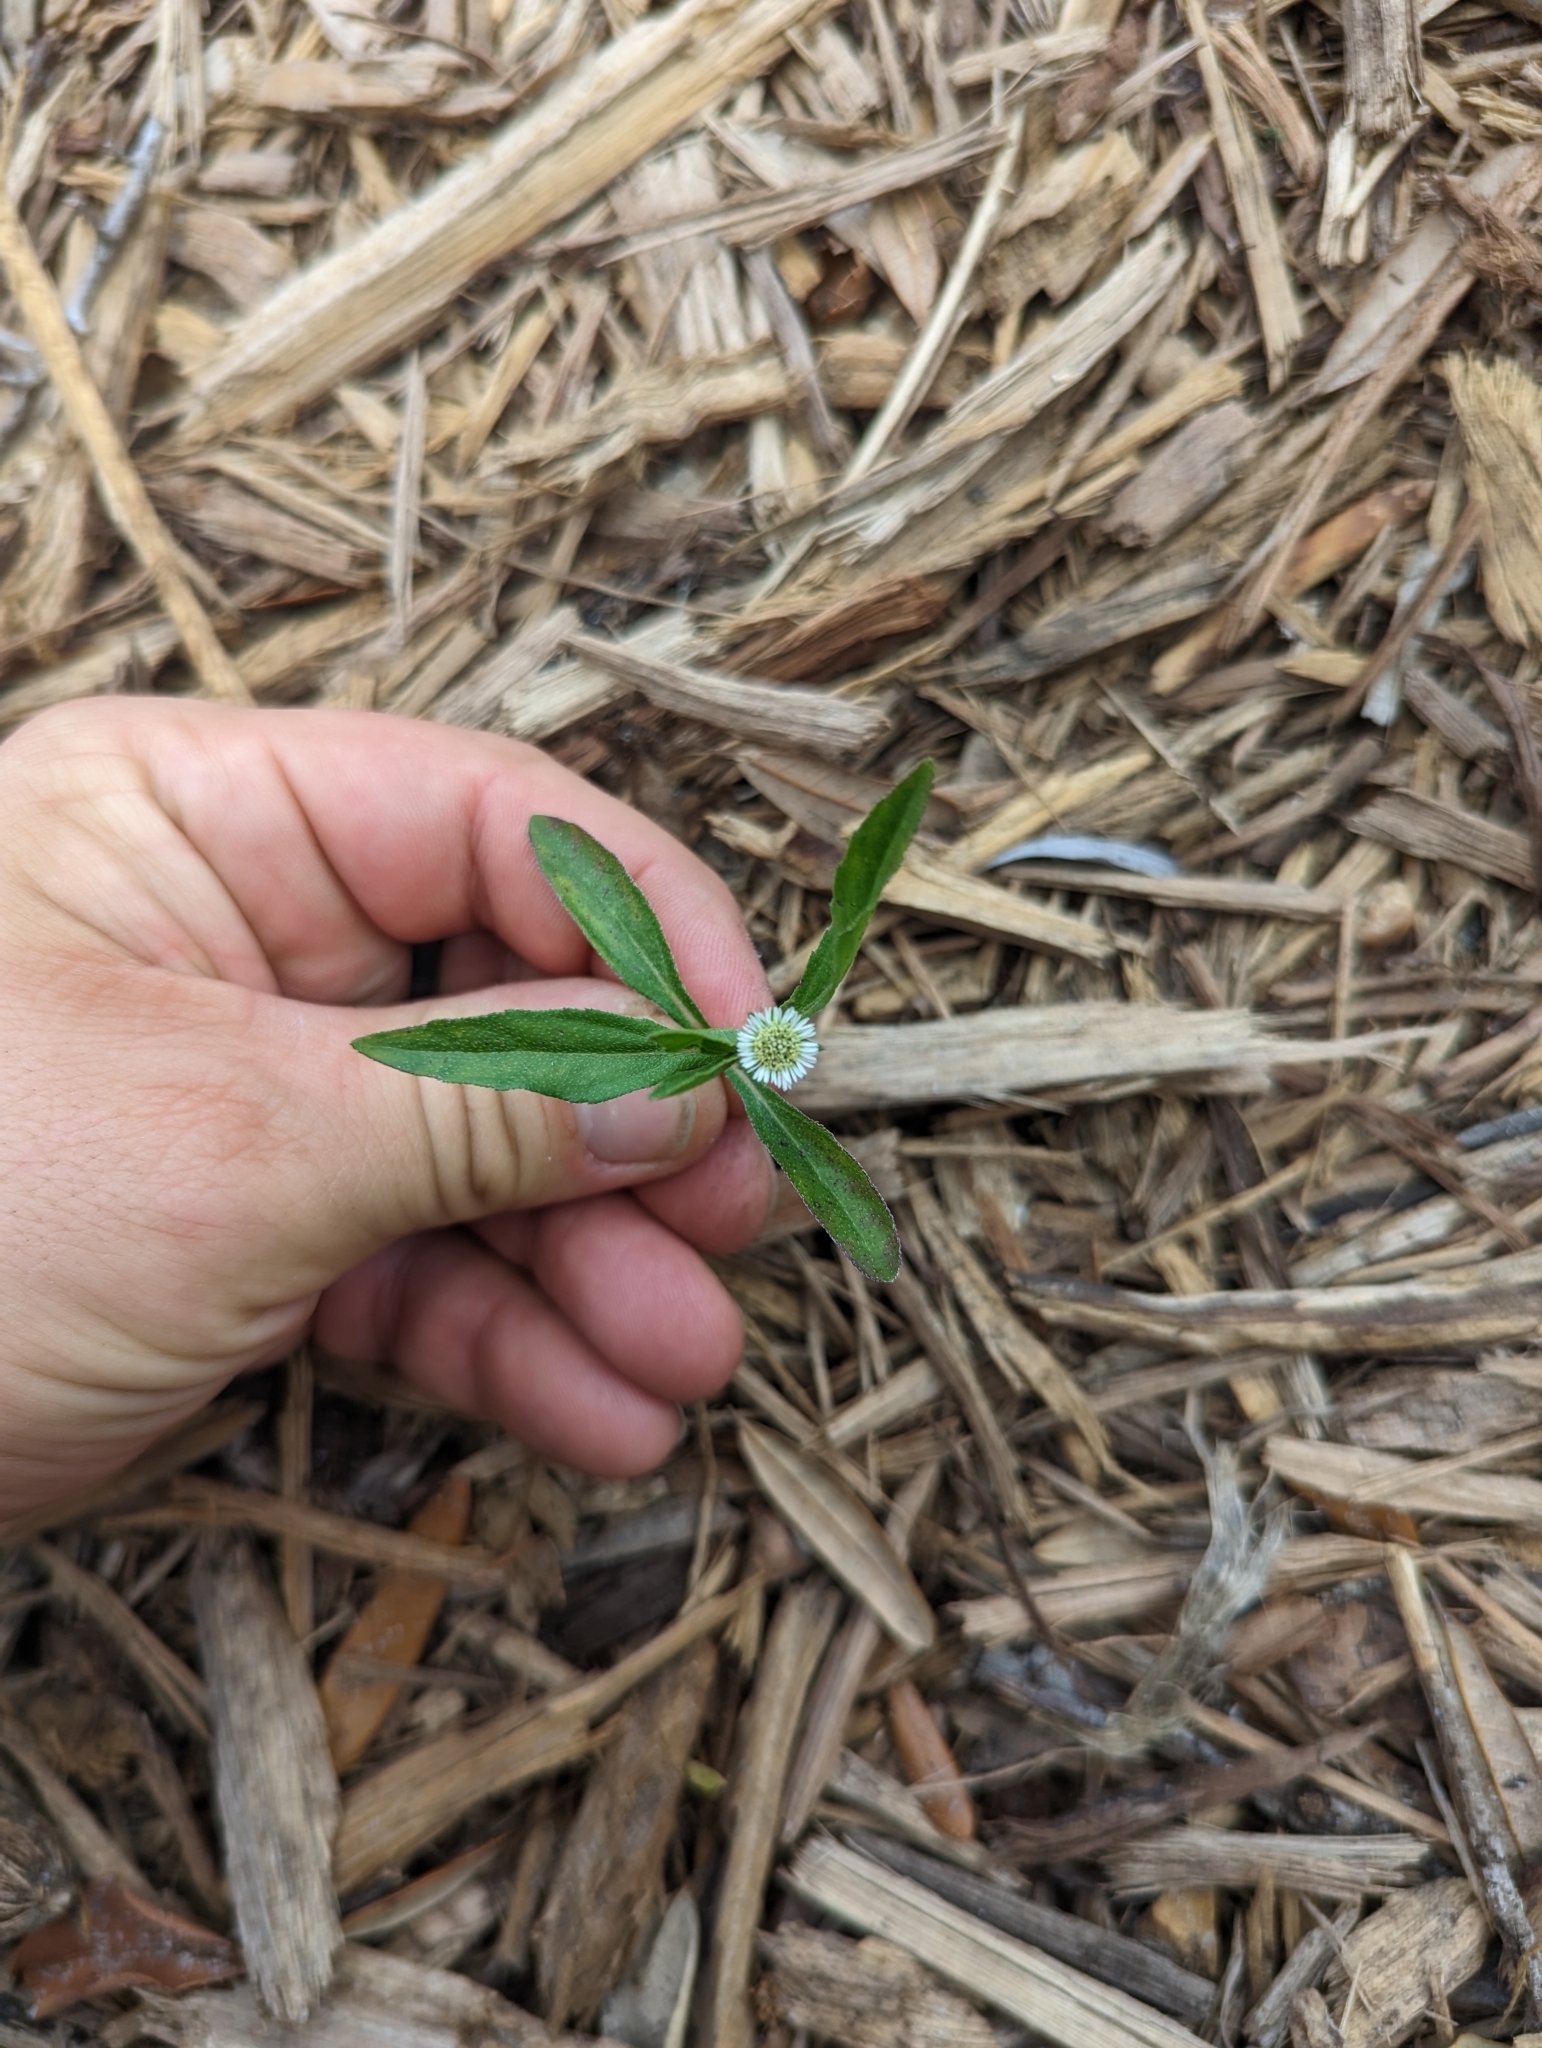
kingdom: Plantae
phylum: Tracheophyta
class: Magnoliopsida
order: Asterales
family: Asteraceae
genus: Eclipta
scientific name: Eclipta prostrata
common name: False daisy
